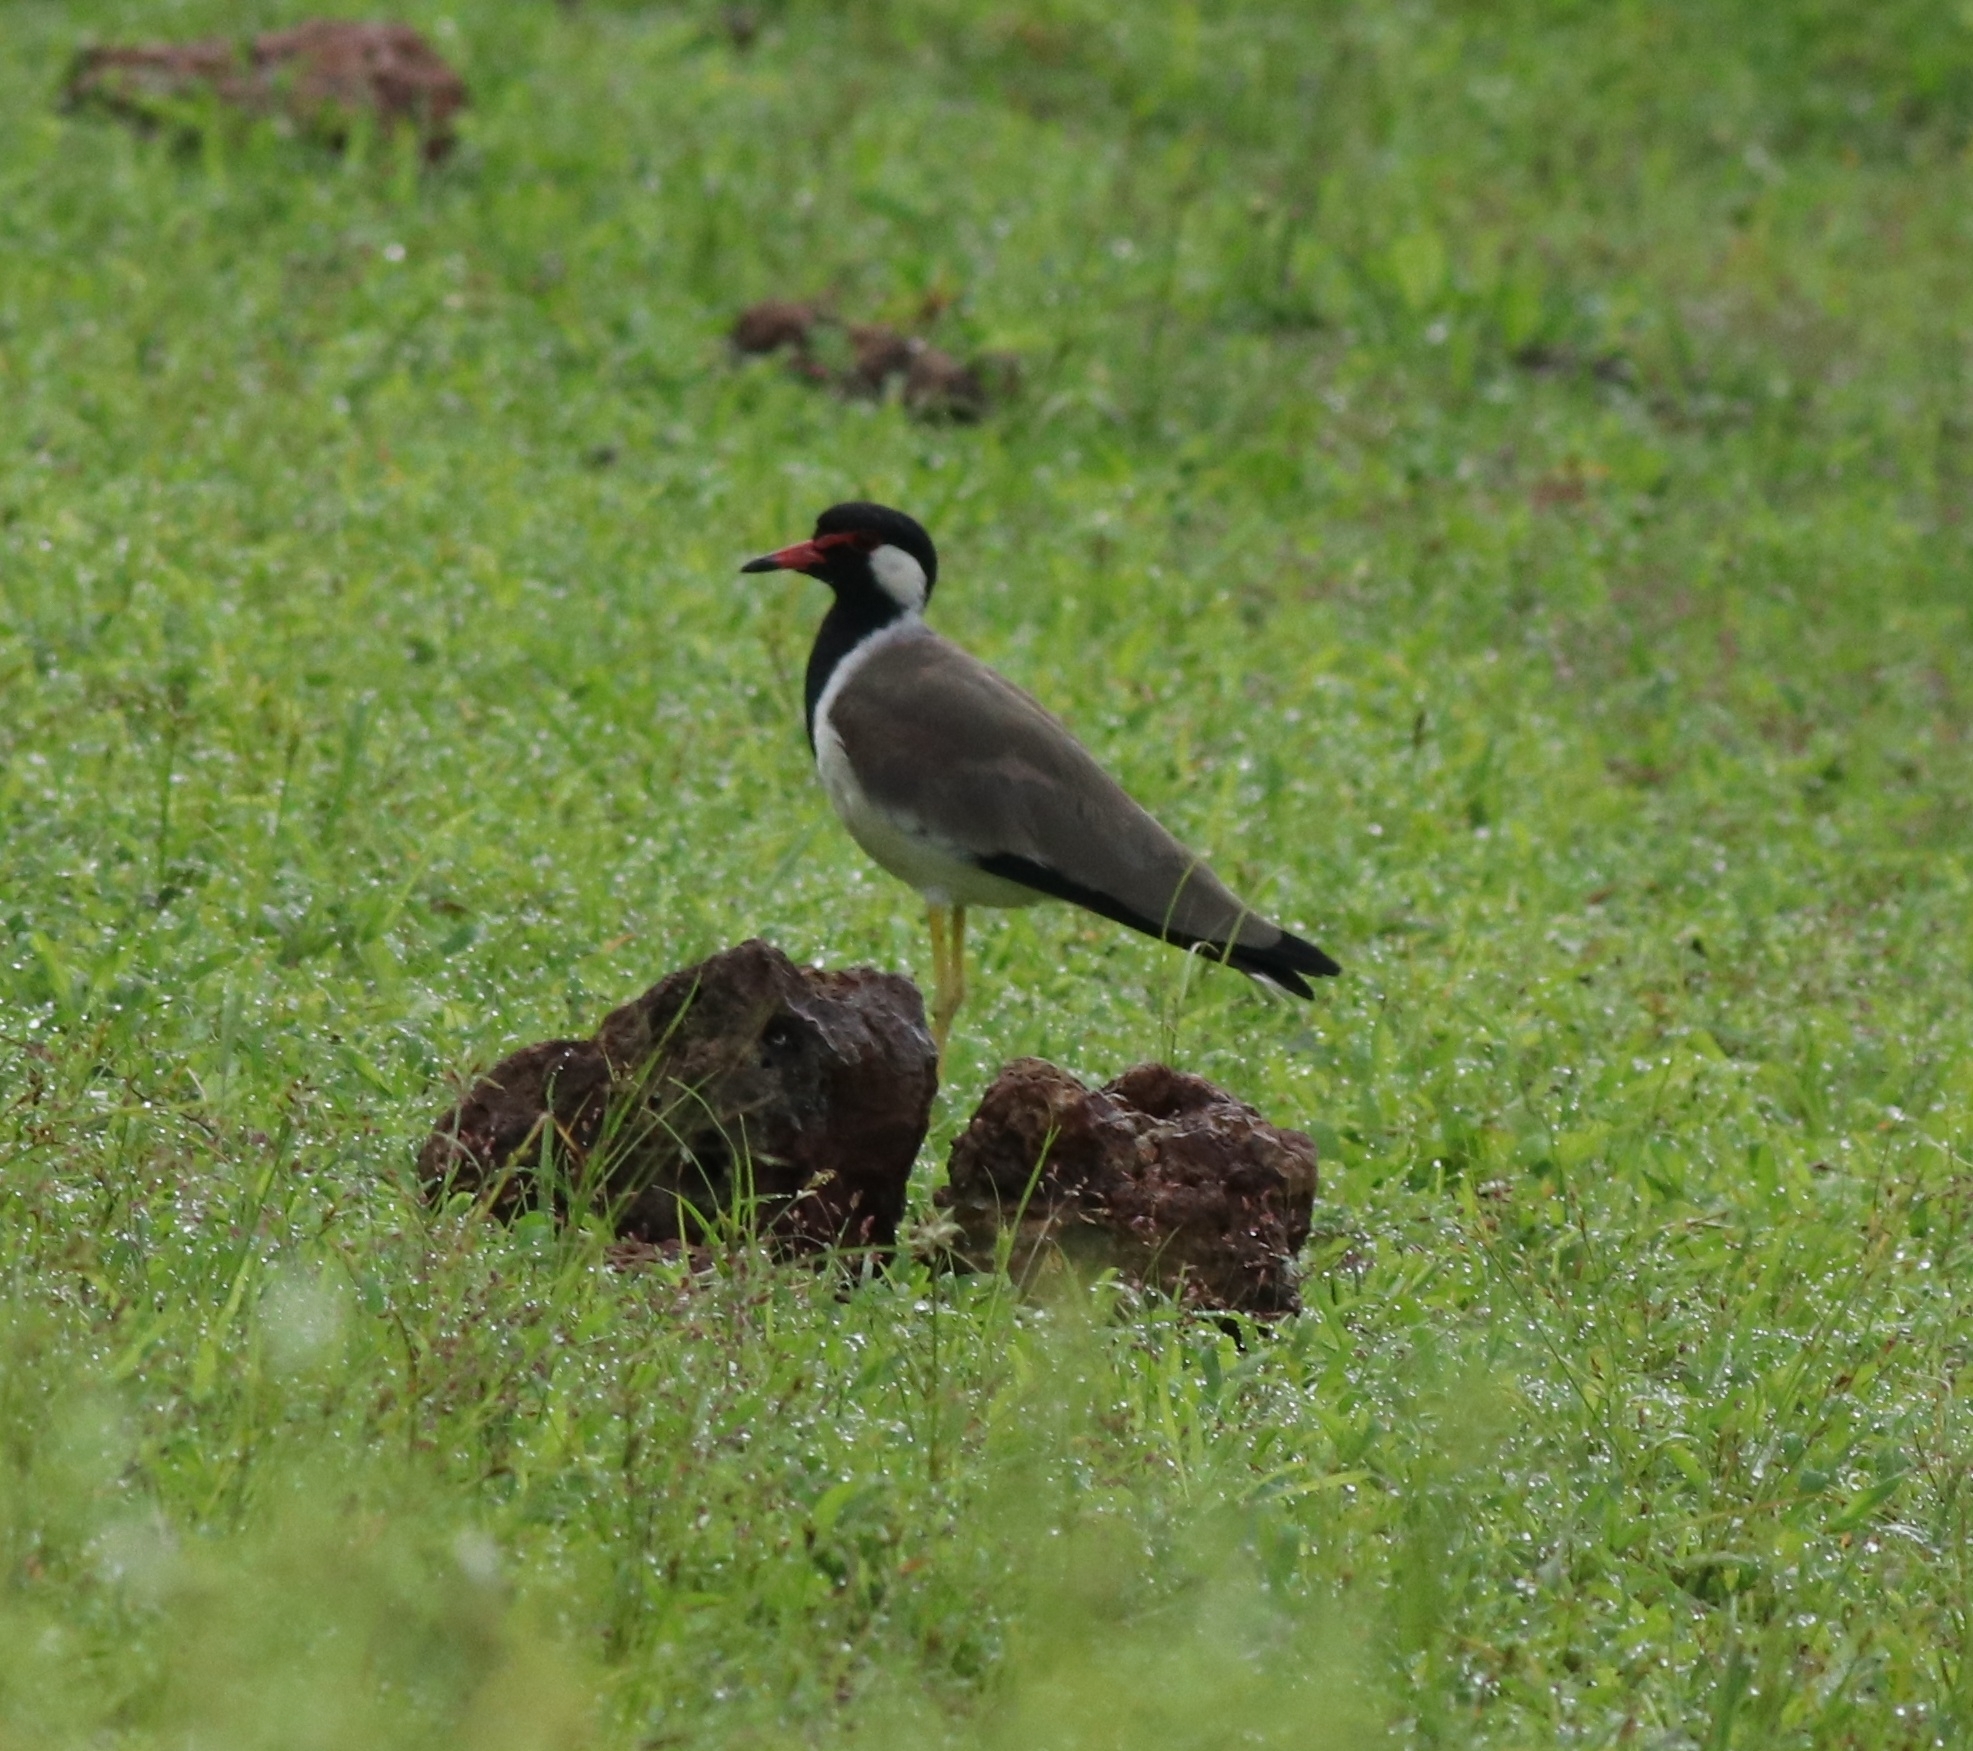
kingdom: Animalia
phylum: Chordata
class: Aves
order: Charadriiformes
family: Charadriidae
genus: Vanellus
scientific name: Vanellus indicus
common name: Red-wattled lapwing
